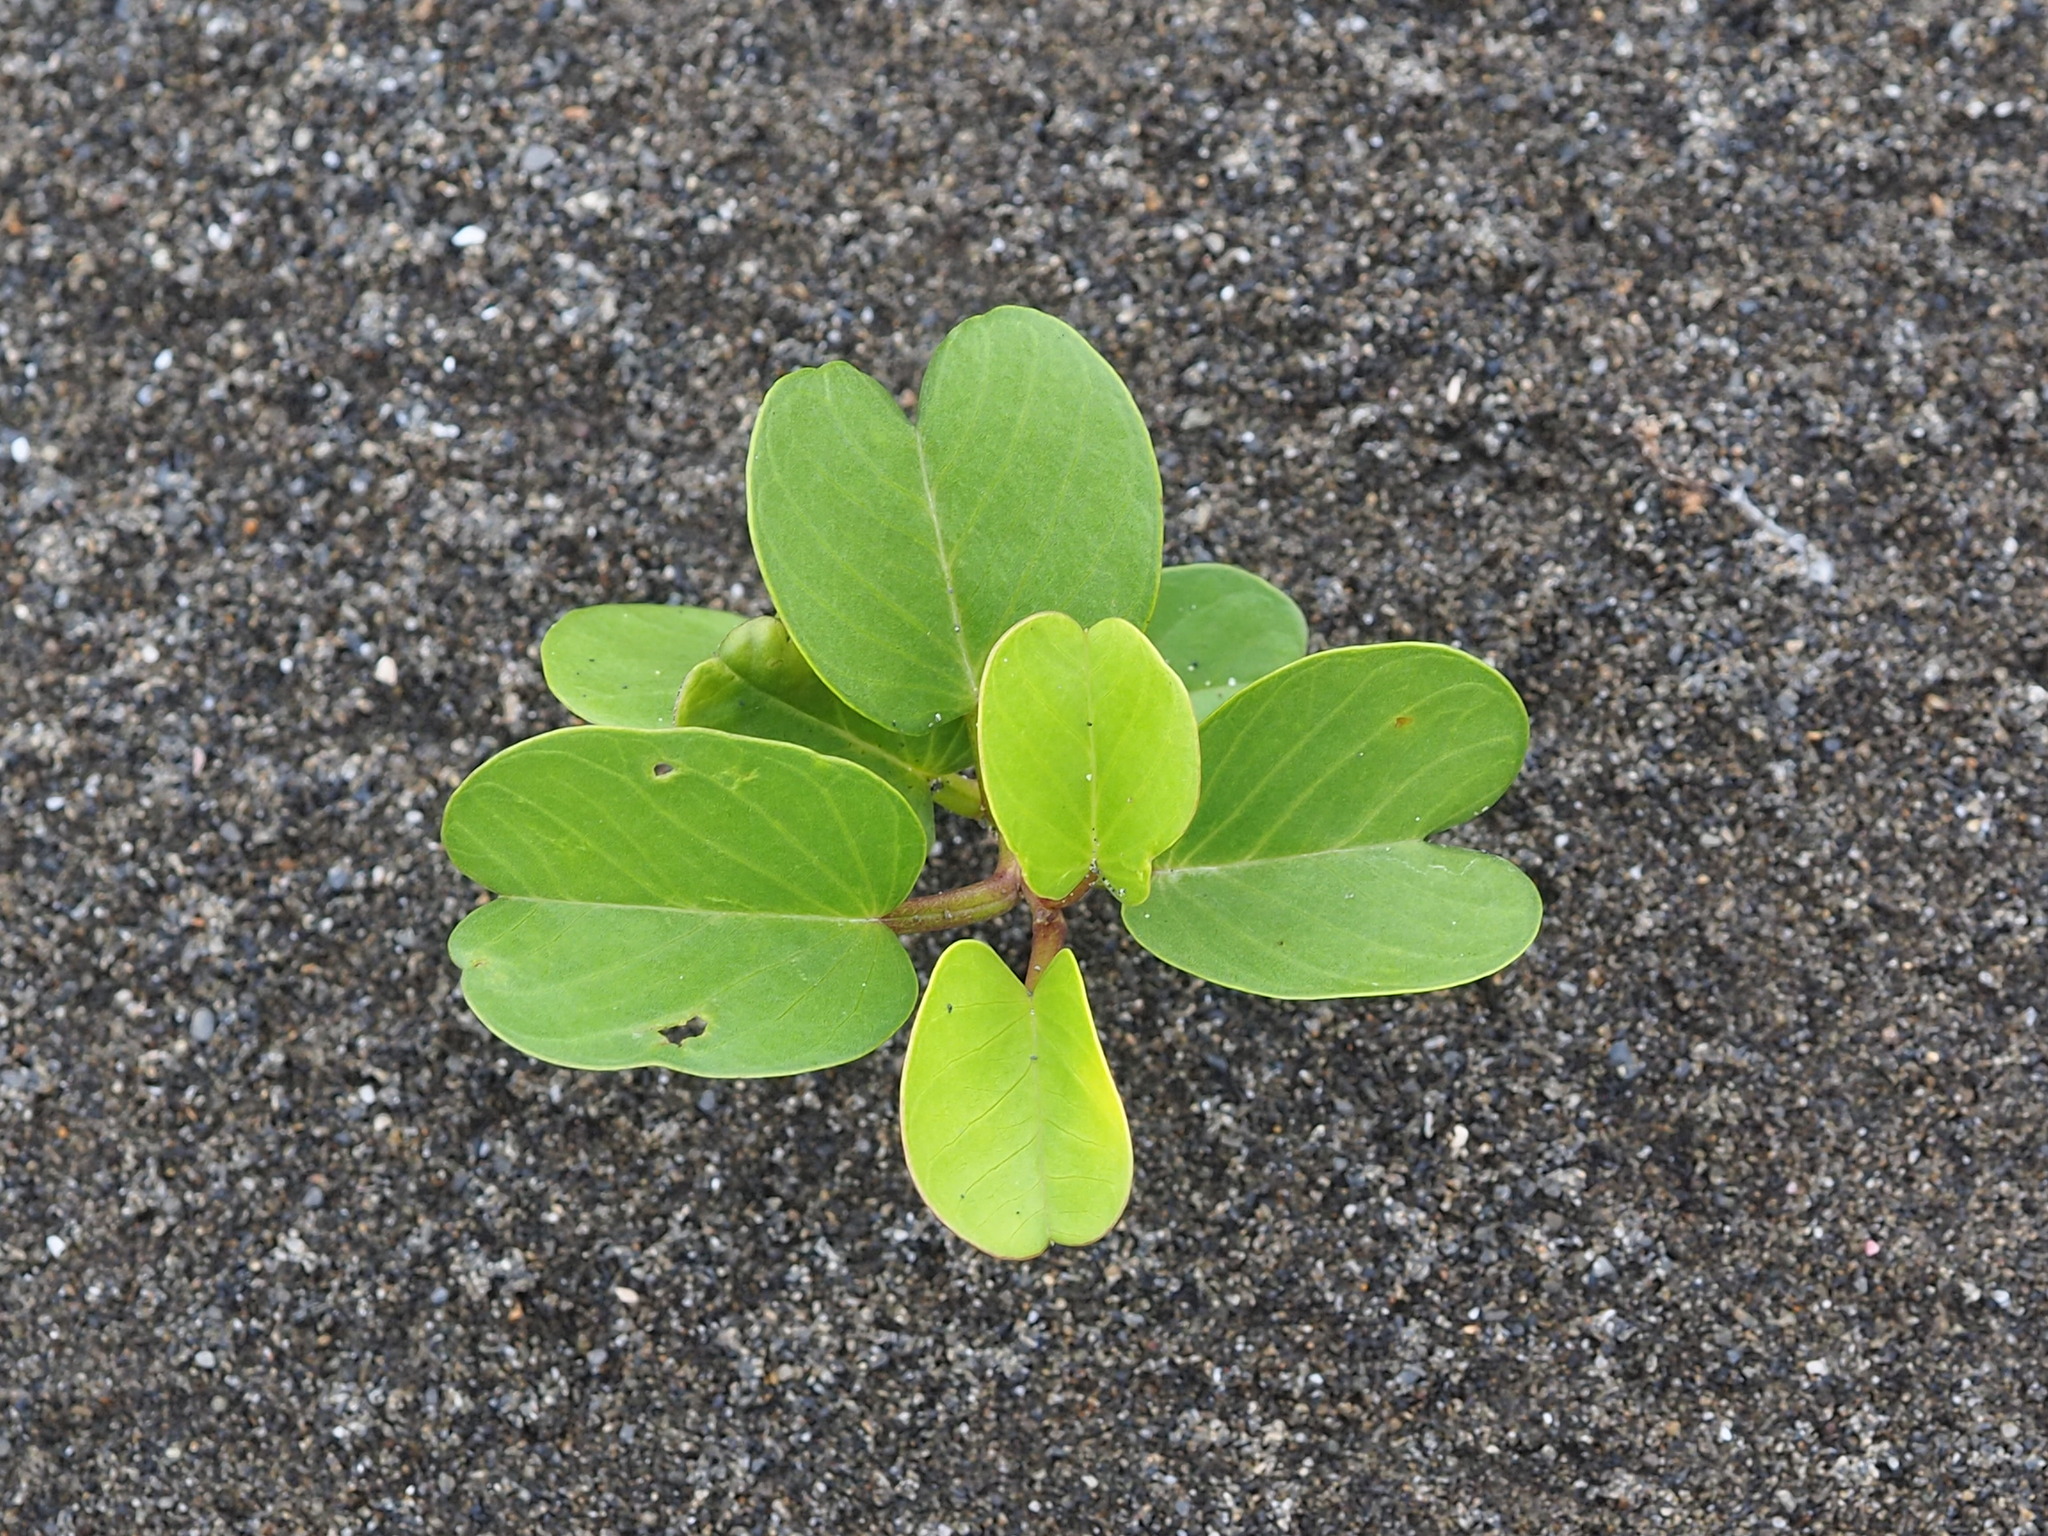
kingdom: Plantae
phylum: Tracheophyta
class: Magnoliopsida
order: Solanales
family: Convolvulaceae
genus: Ipomoea
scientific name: Ipomoea pes-caprae
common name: Beach morning glory
